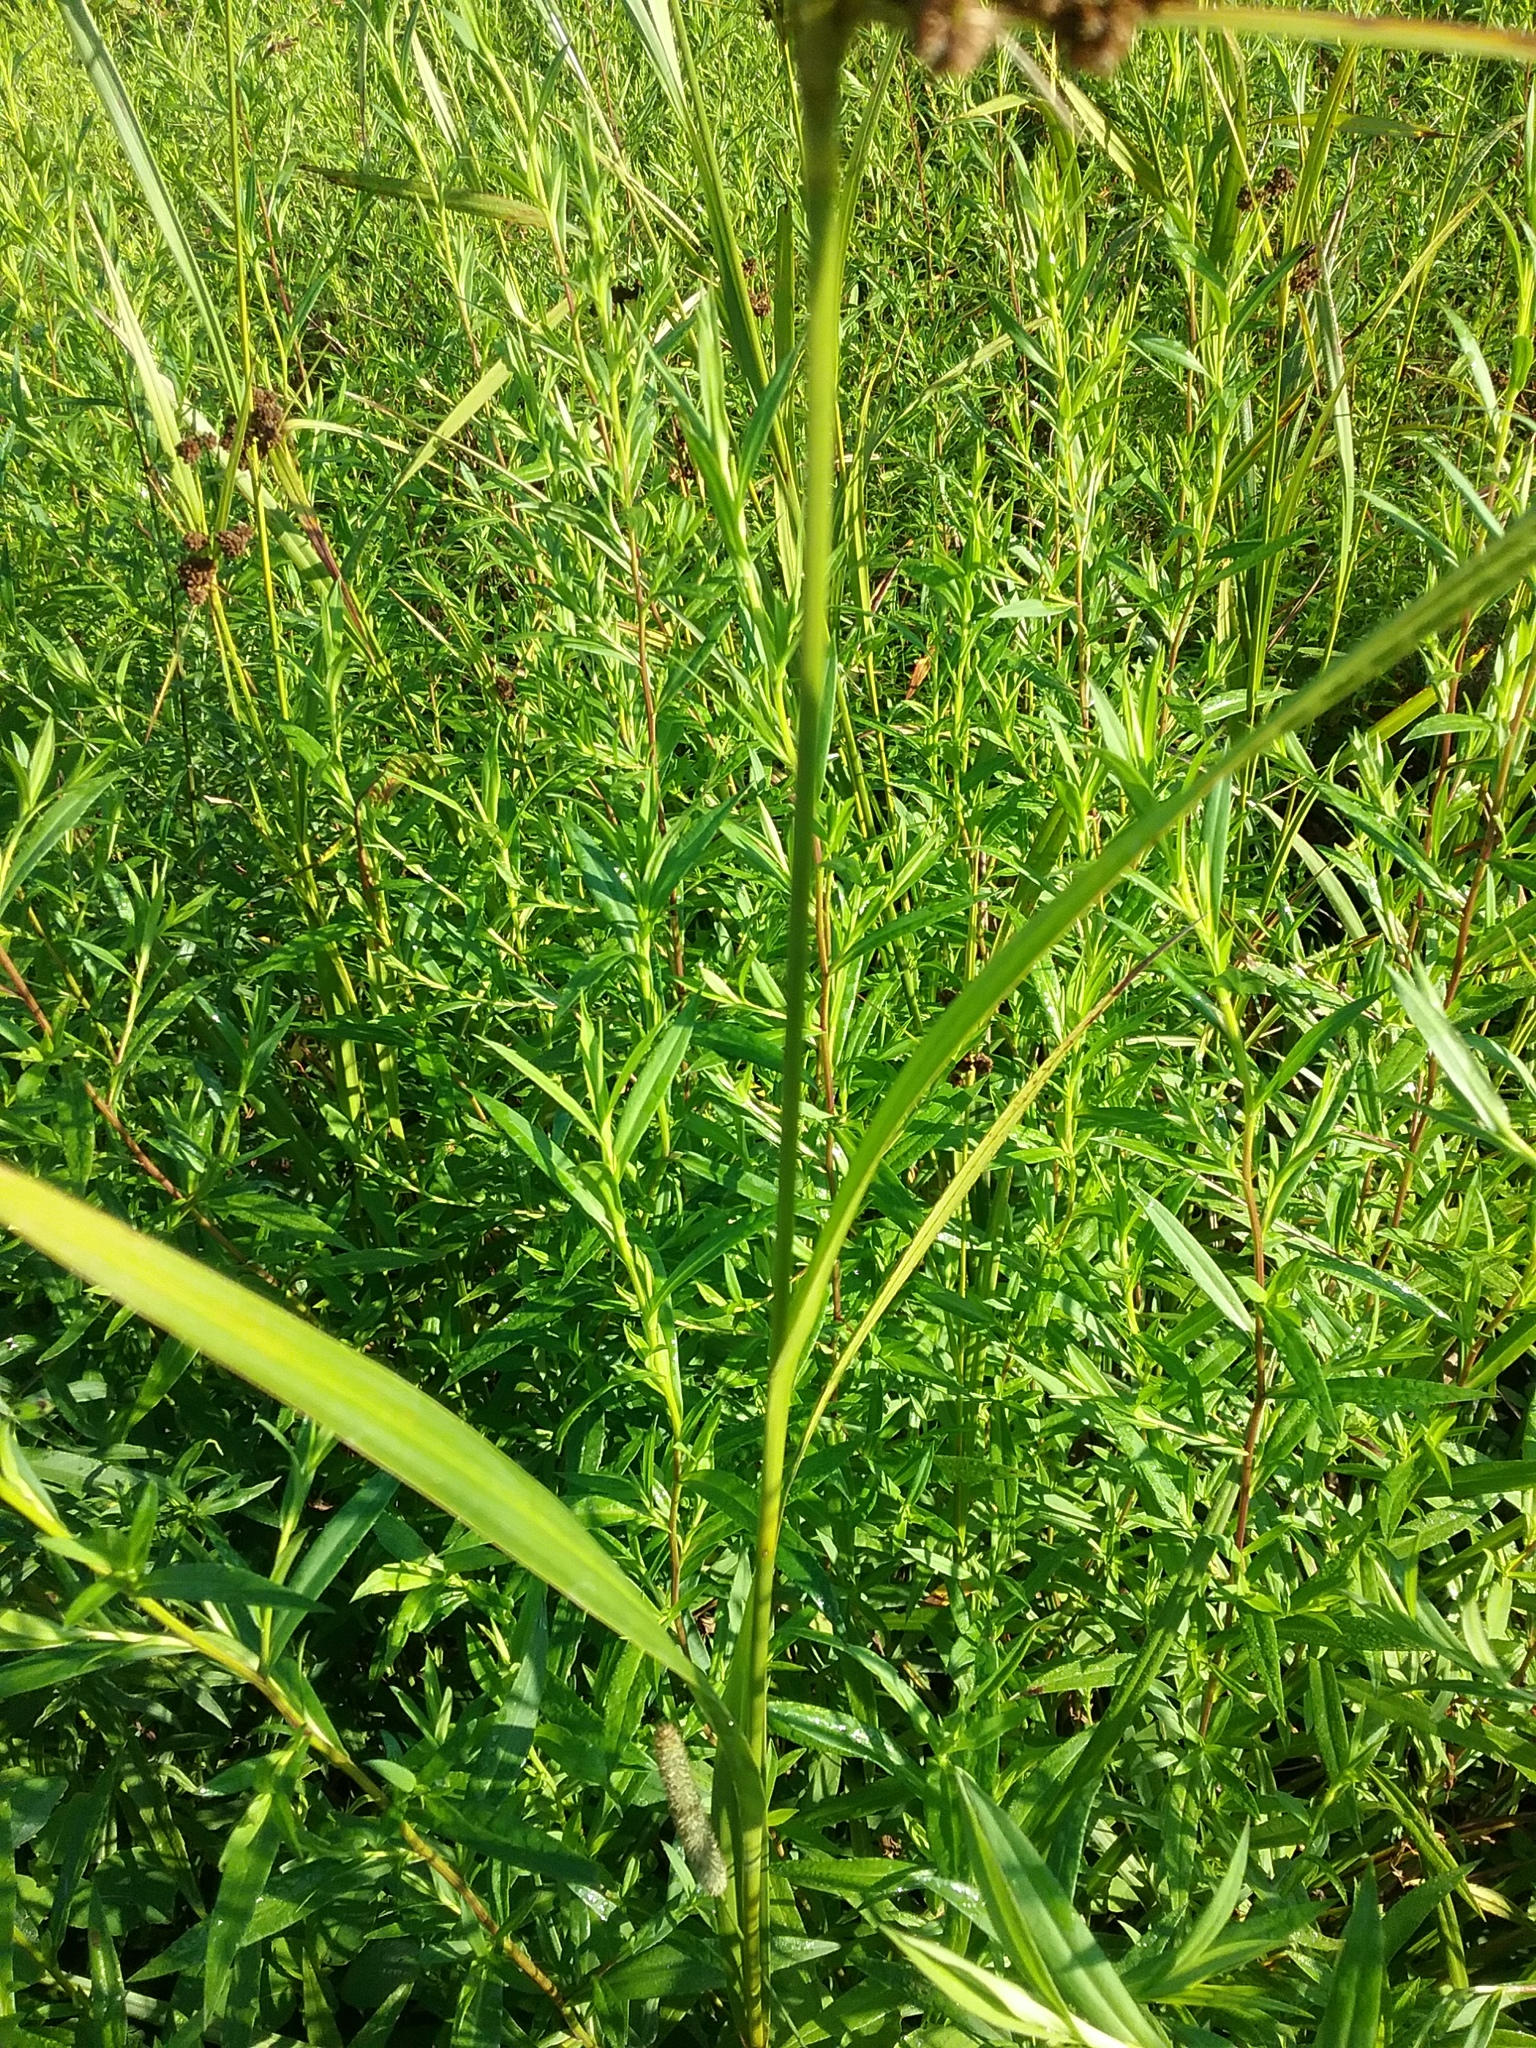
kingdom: Plantae
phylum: Tracheophyta
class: Liliopsida
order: Poales
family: Cyperaceae
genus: Scirpus
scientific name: Scirpus atrovirens
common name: Black bulrush
